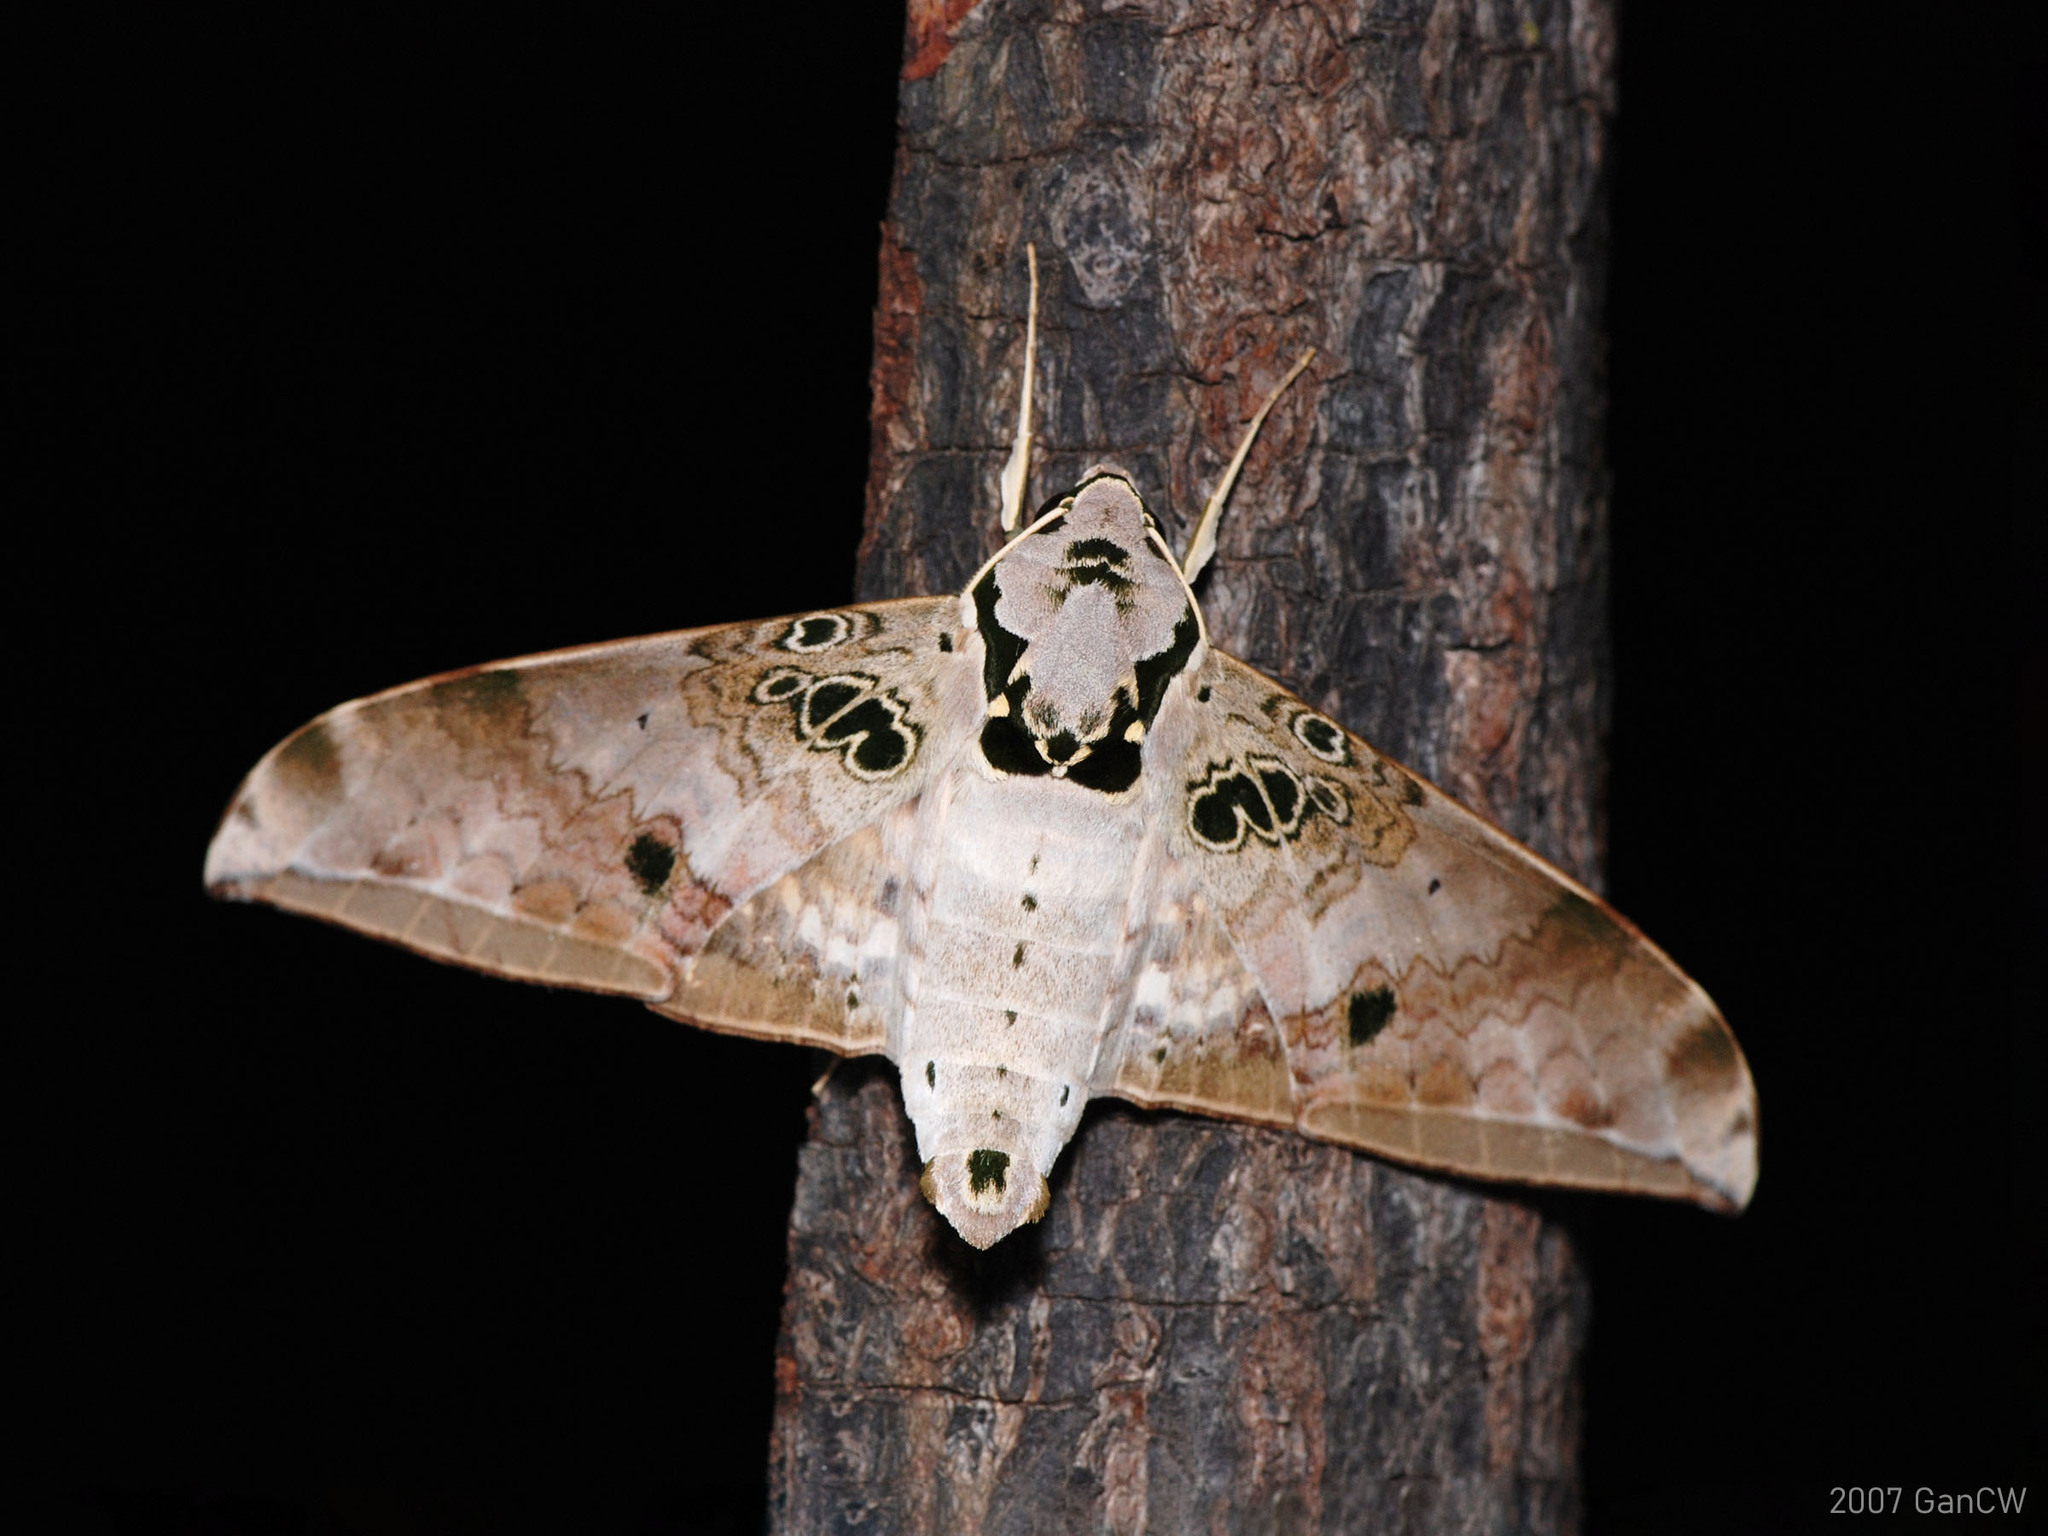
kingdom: Animalia
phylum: Arthropoda
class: Insecta
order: Lepidoptera
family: Sphingidae
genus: Ambulyx
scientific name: Ambulyx canescens
